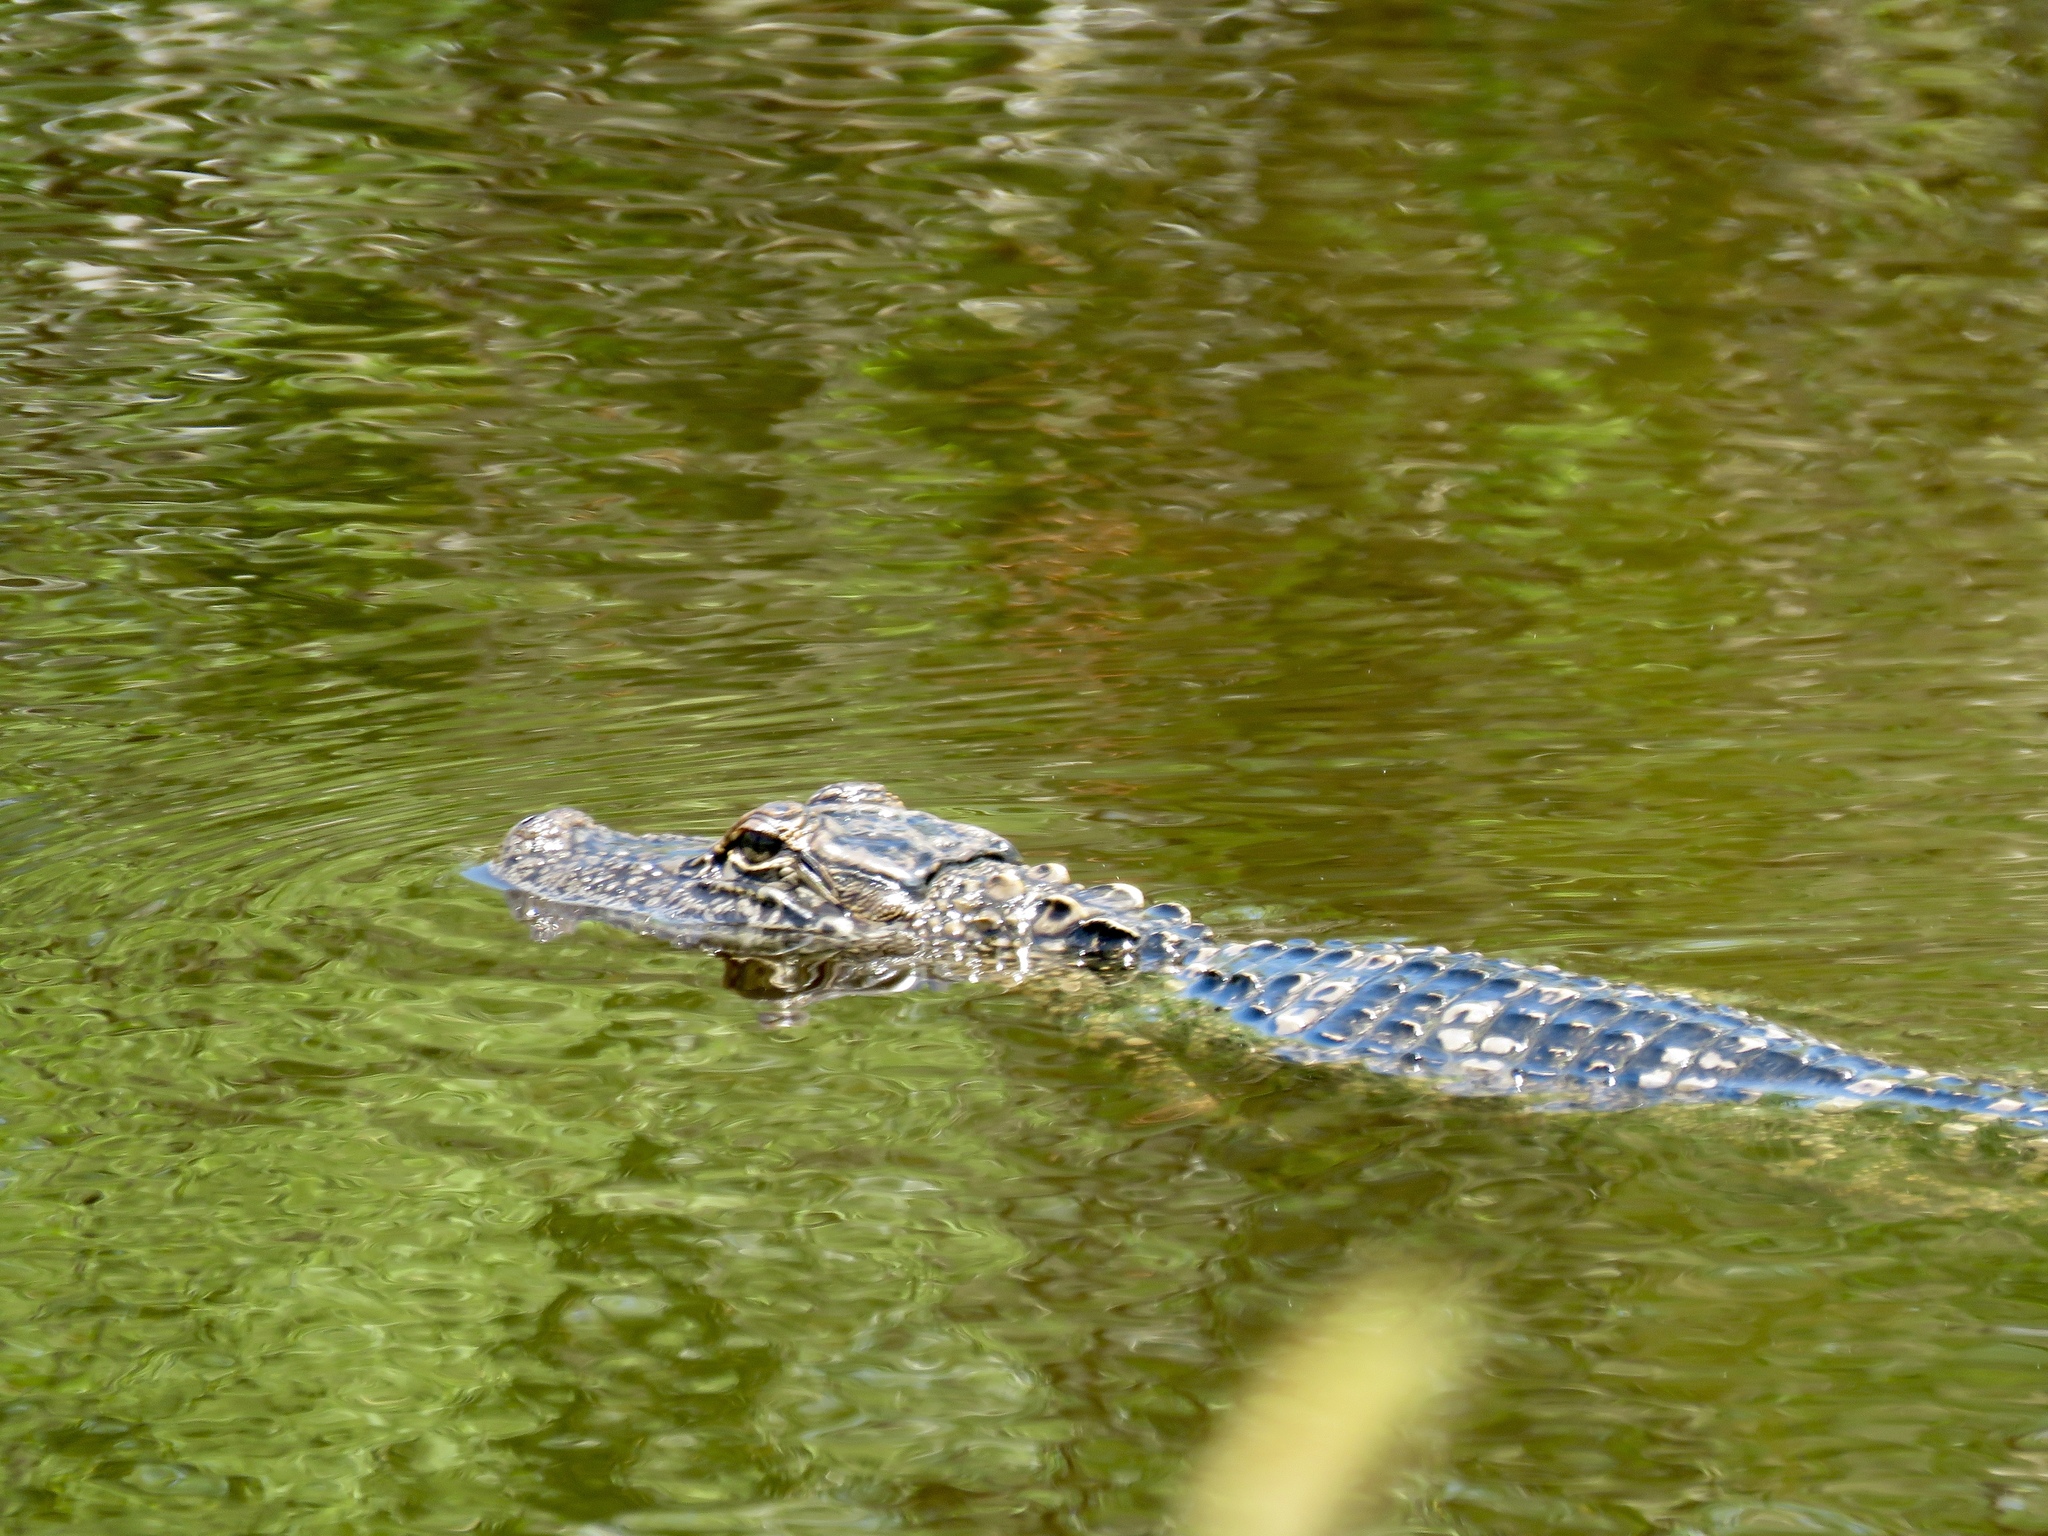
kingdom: Animalia
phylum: Chordata
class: Crocodylia
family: Alligatoridae
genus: Alligator
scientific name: Alligator mississippiensis
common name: American alligator
